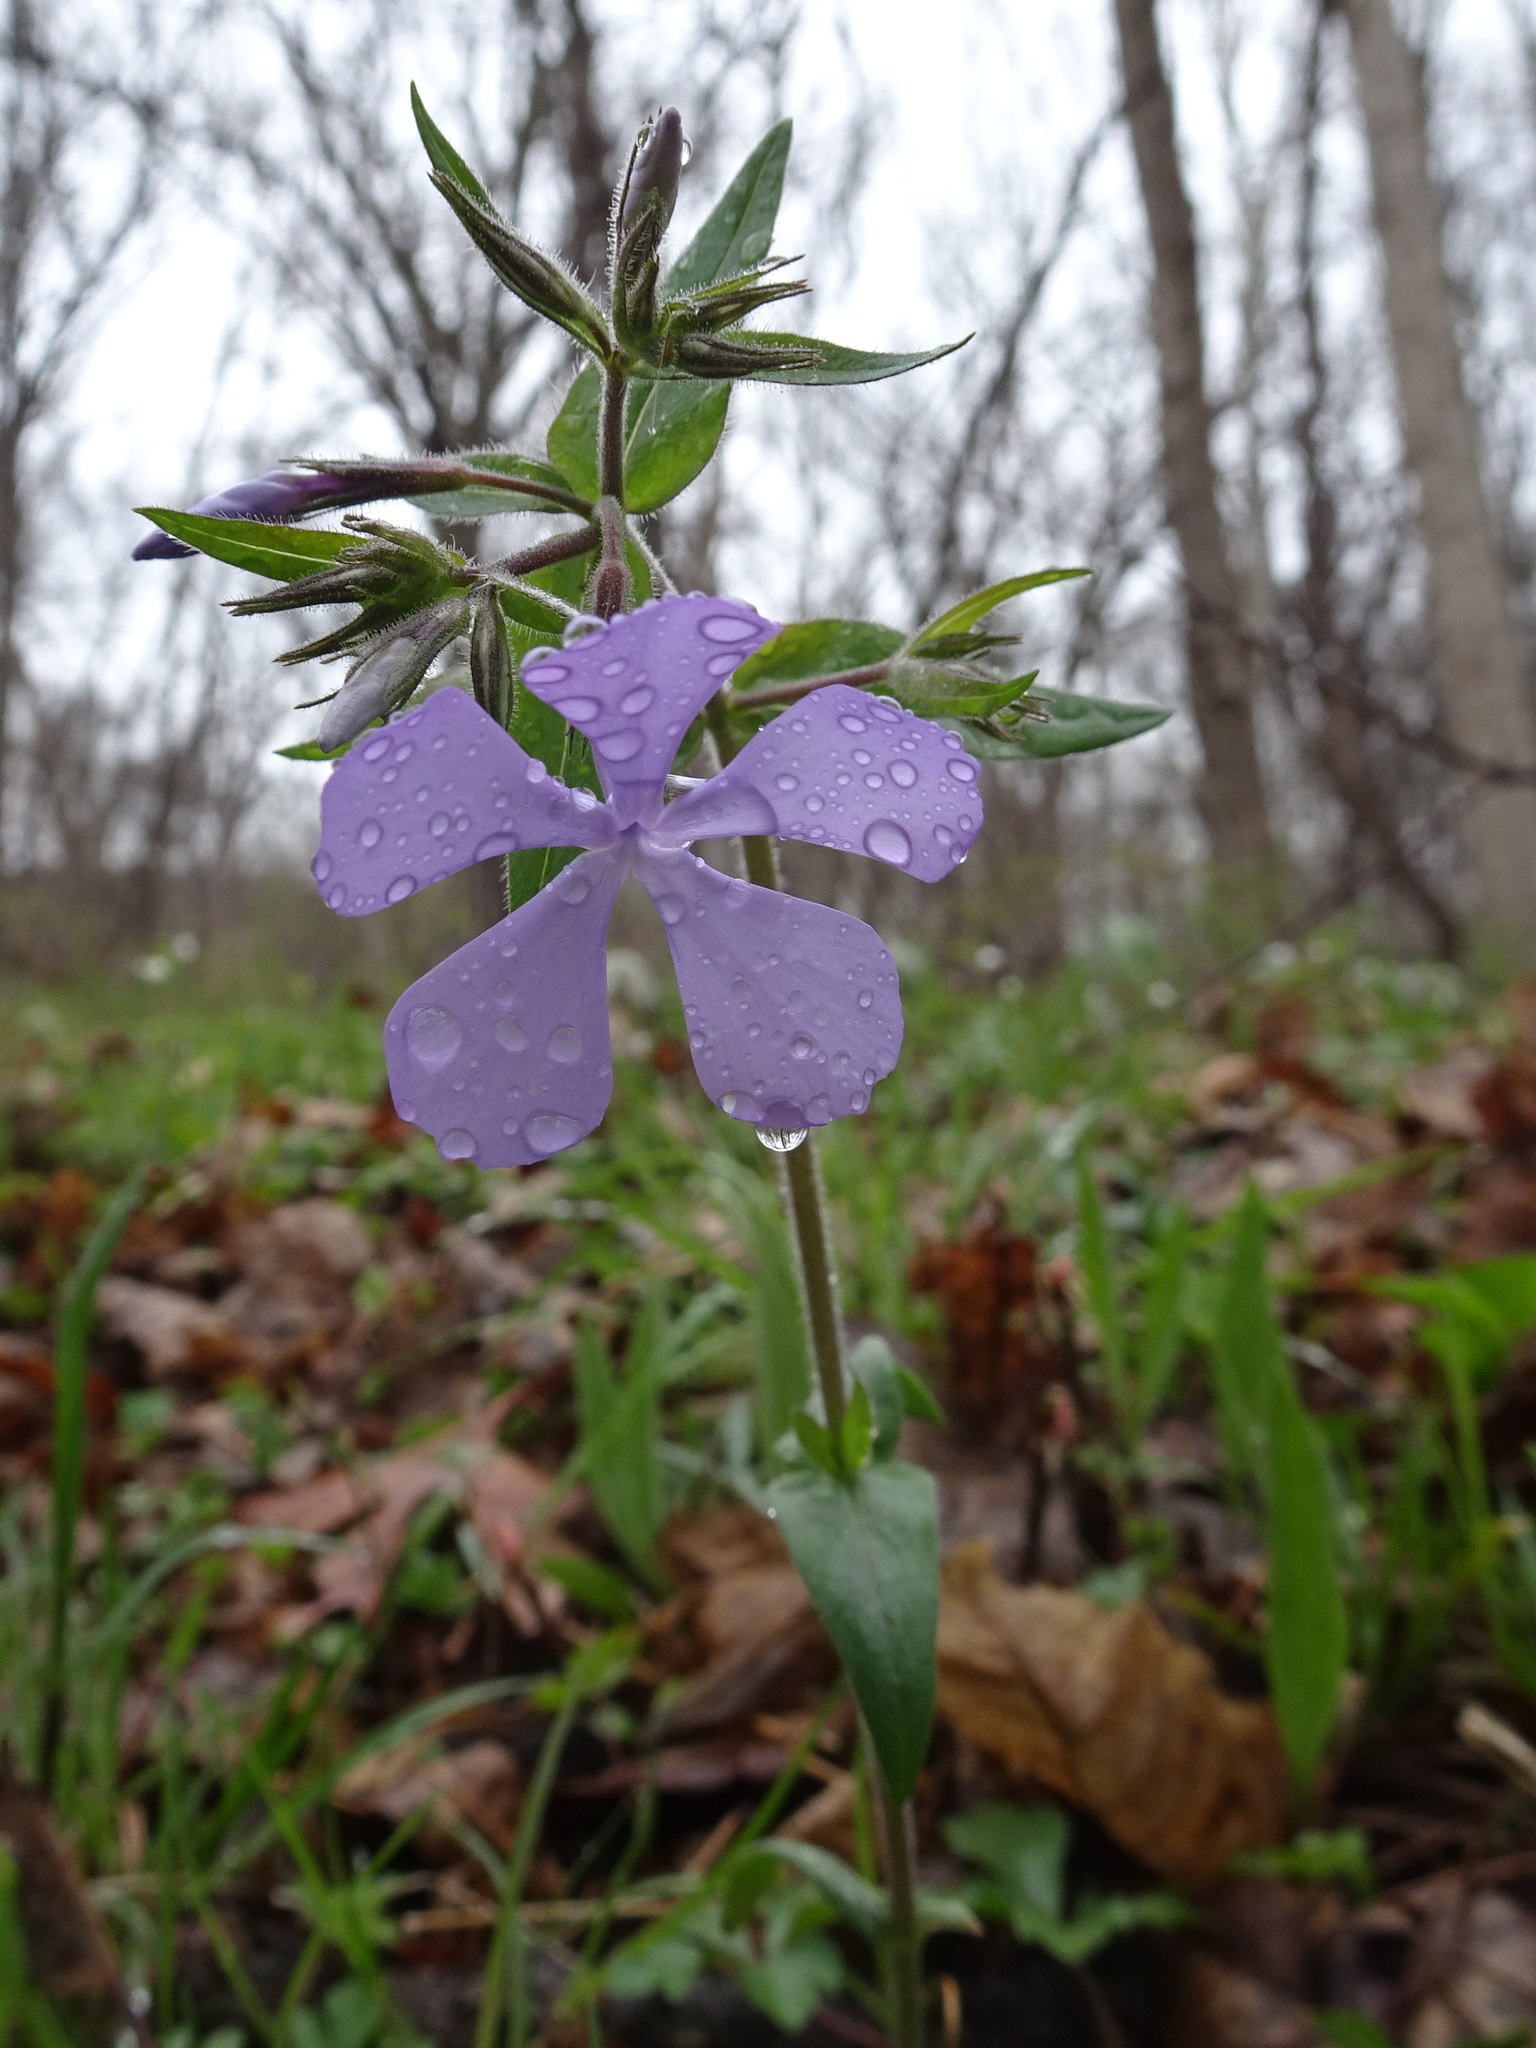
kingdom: Plantae
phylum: Tracheophyta
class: Magnoliopsida
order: Ericales
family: Polemoniaceae
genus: Phlox
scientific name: Phlox divaricata
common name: Blue phlox
